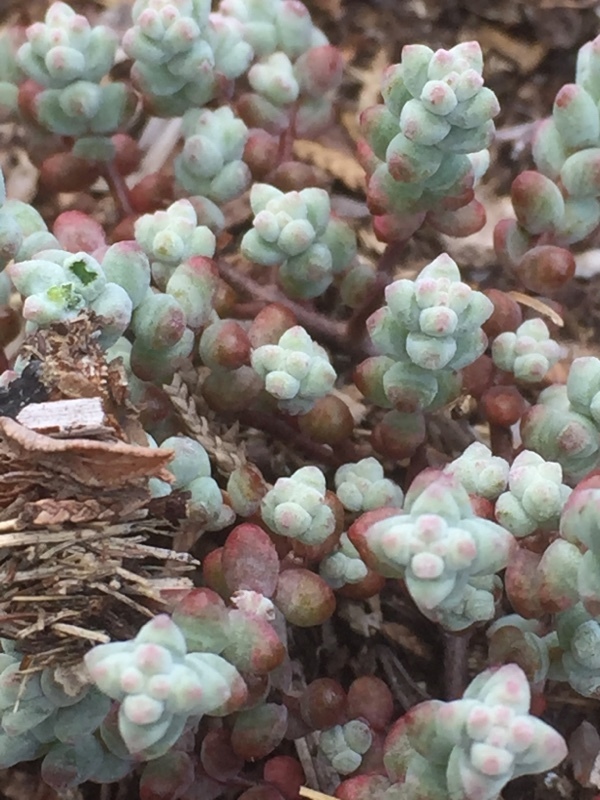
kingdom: Plantae
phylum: Tracheophyta
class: Magnoliopsida
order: Saxifragales
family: Crassulaceae
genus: Sedum
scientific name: Sedum brevifolium
